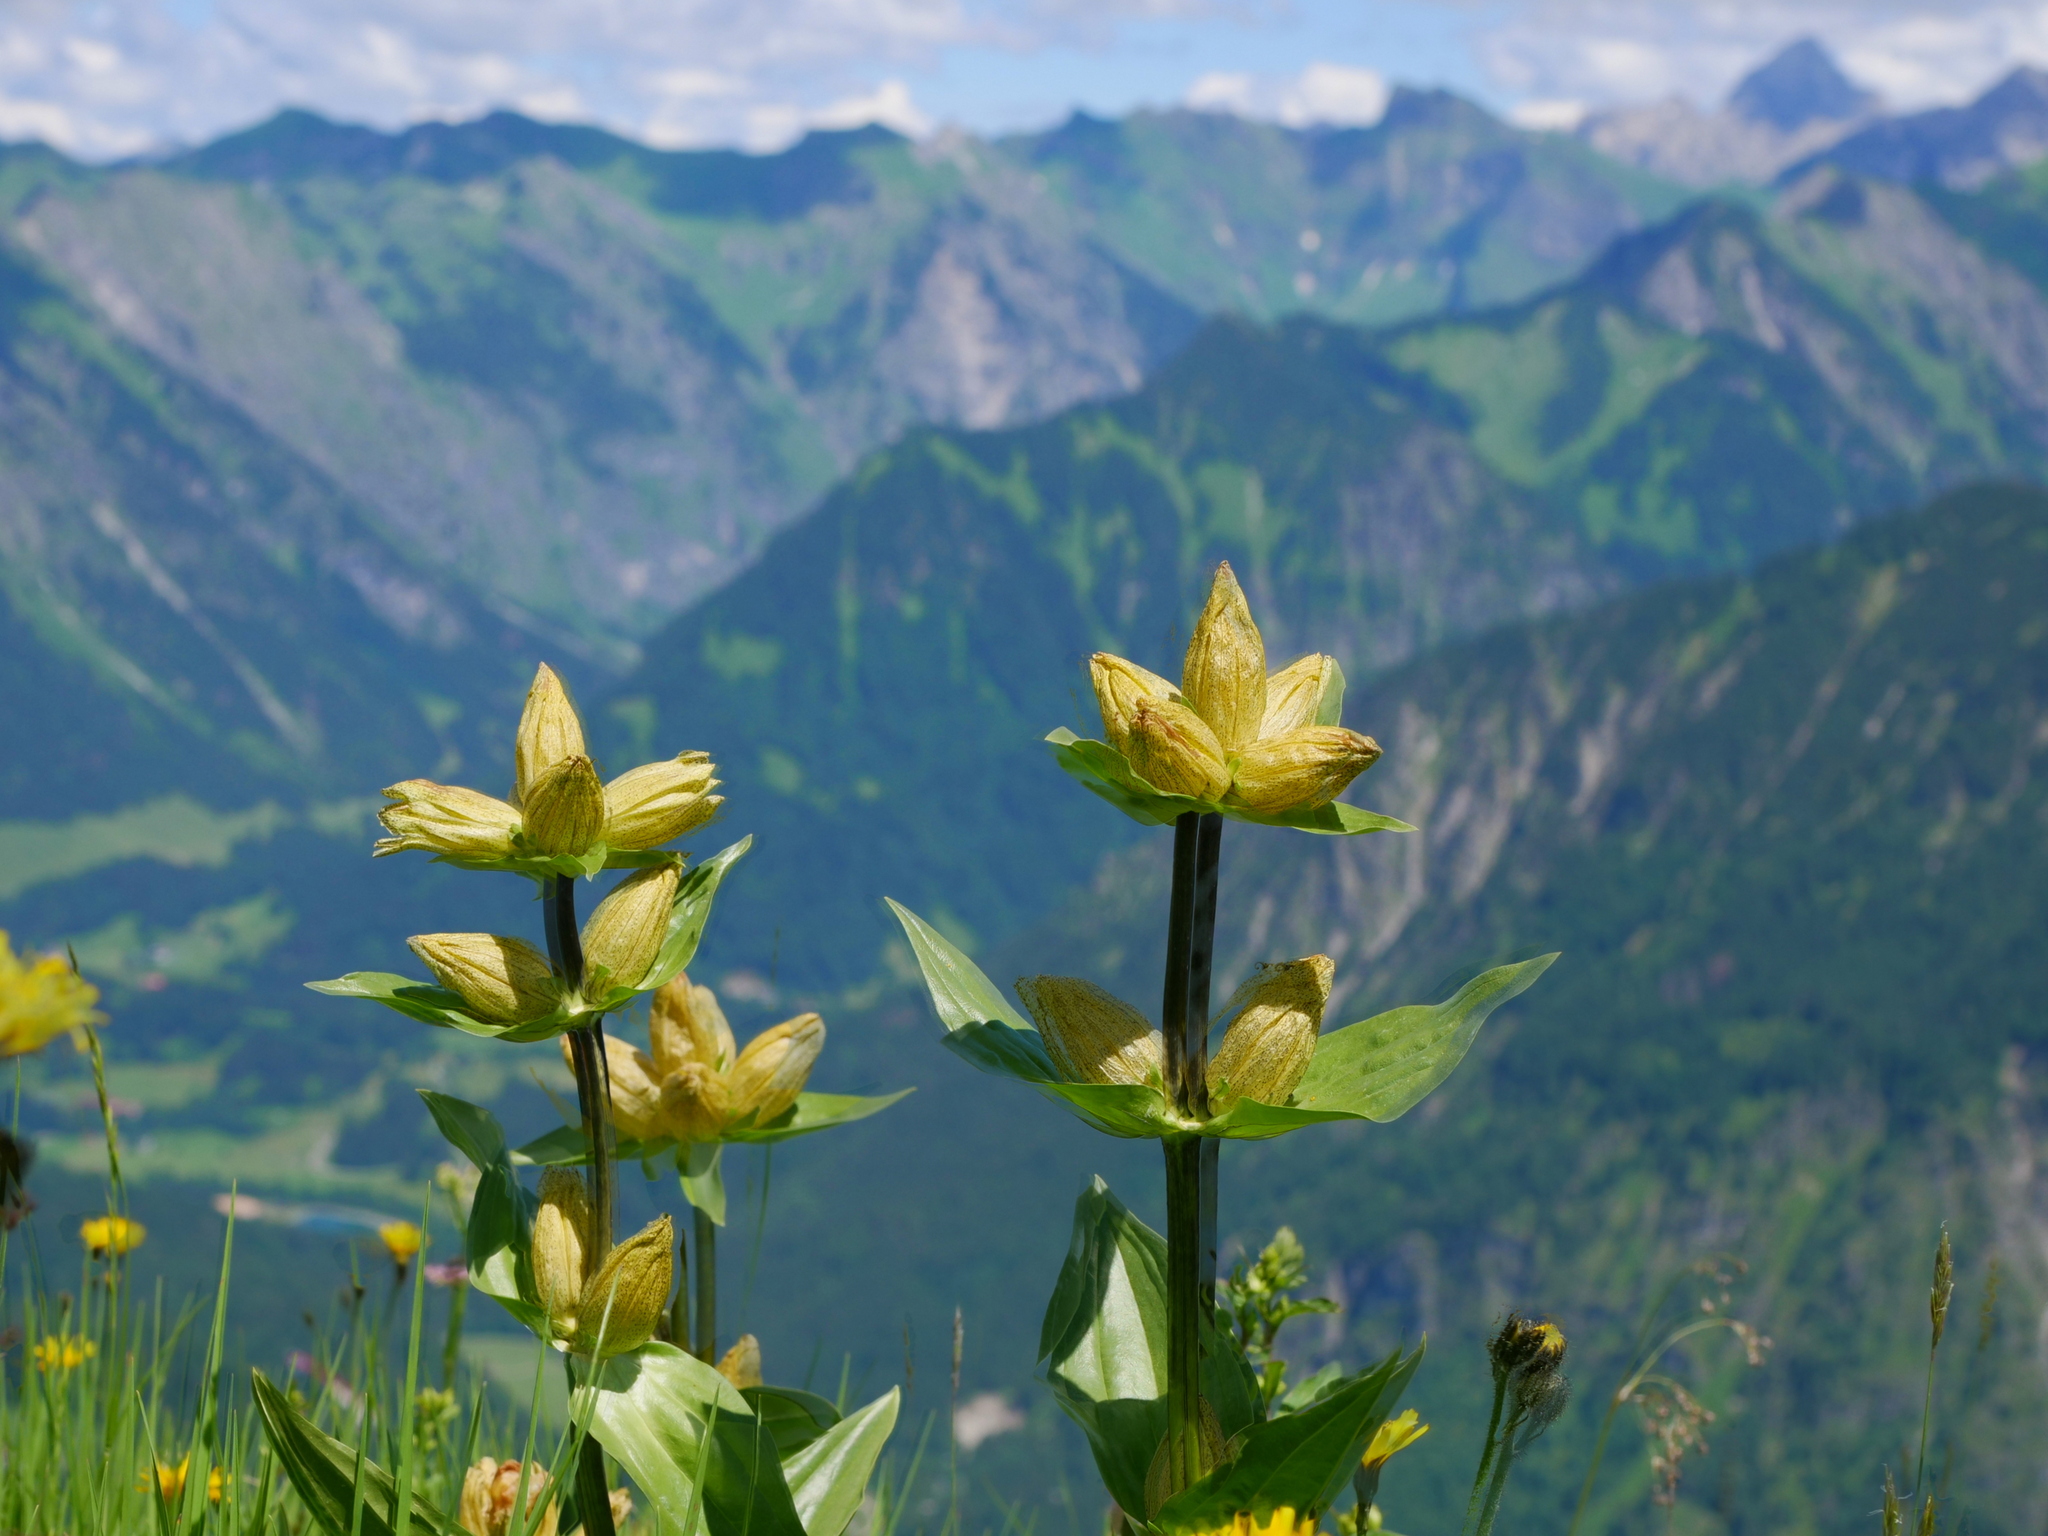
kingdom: Plantae
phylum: Tracheophyta
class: Magnoliopsida
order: Gentianales
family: Gentianaceae
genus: Gentiana
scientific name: Gentiana punctata
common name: Spotted gentian
